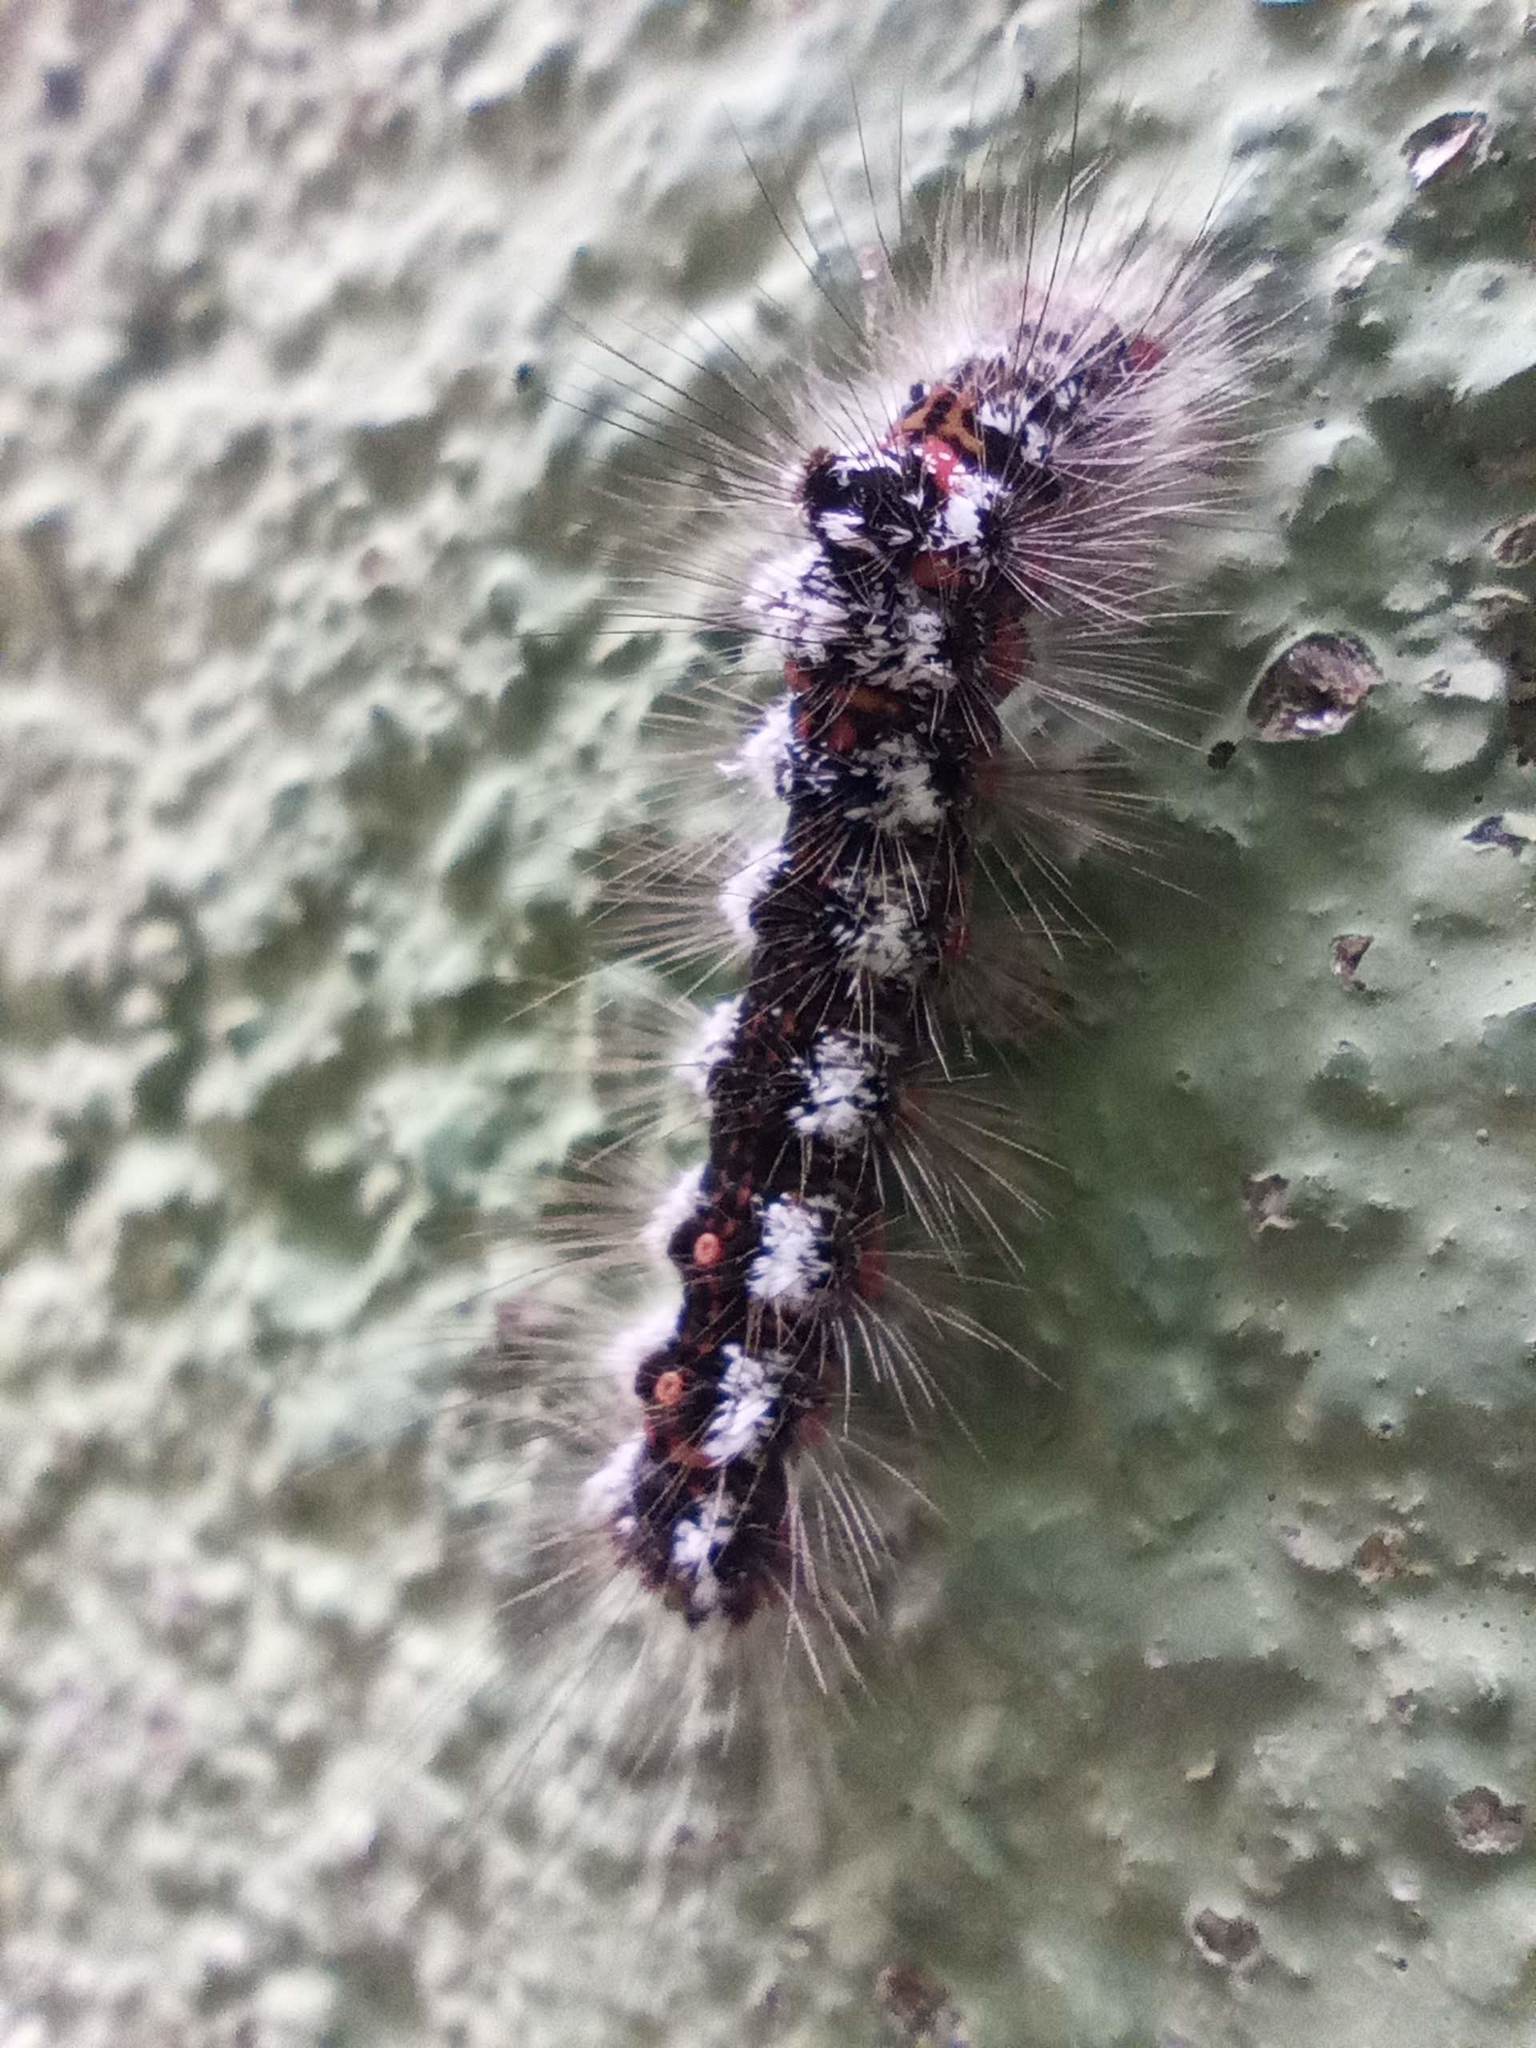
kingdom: Animalia
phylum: Arthropoda
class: Insecta
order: Lepidoptera
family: Erebidae
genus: Sphrageidus
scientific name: Sphrageidus similis
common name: Yellow-tail
